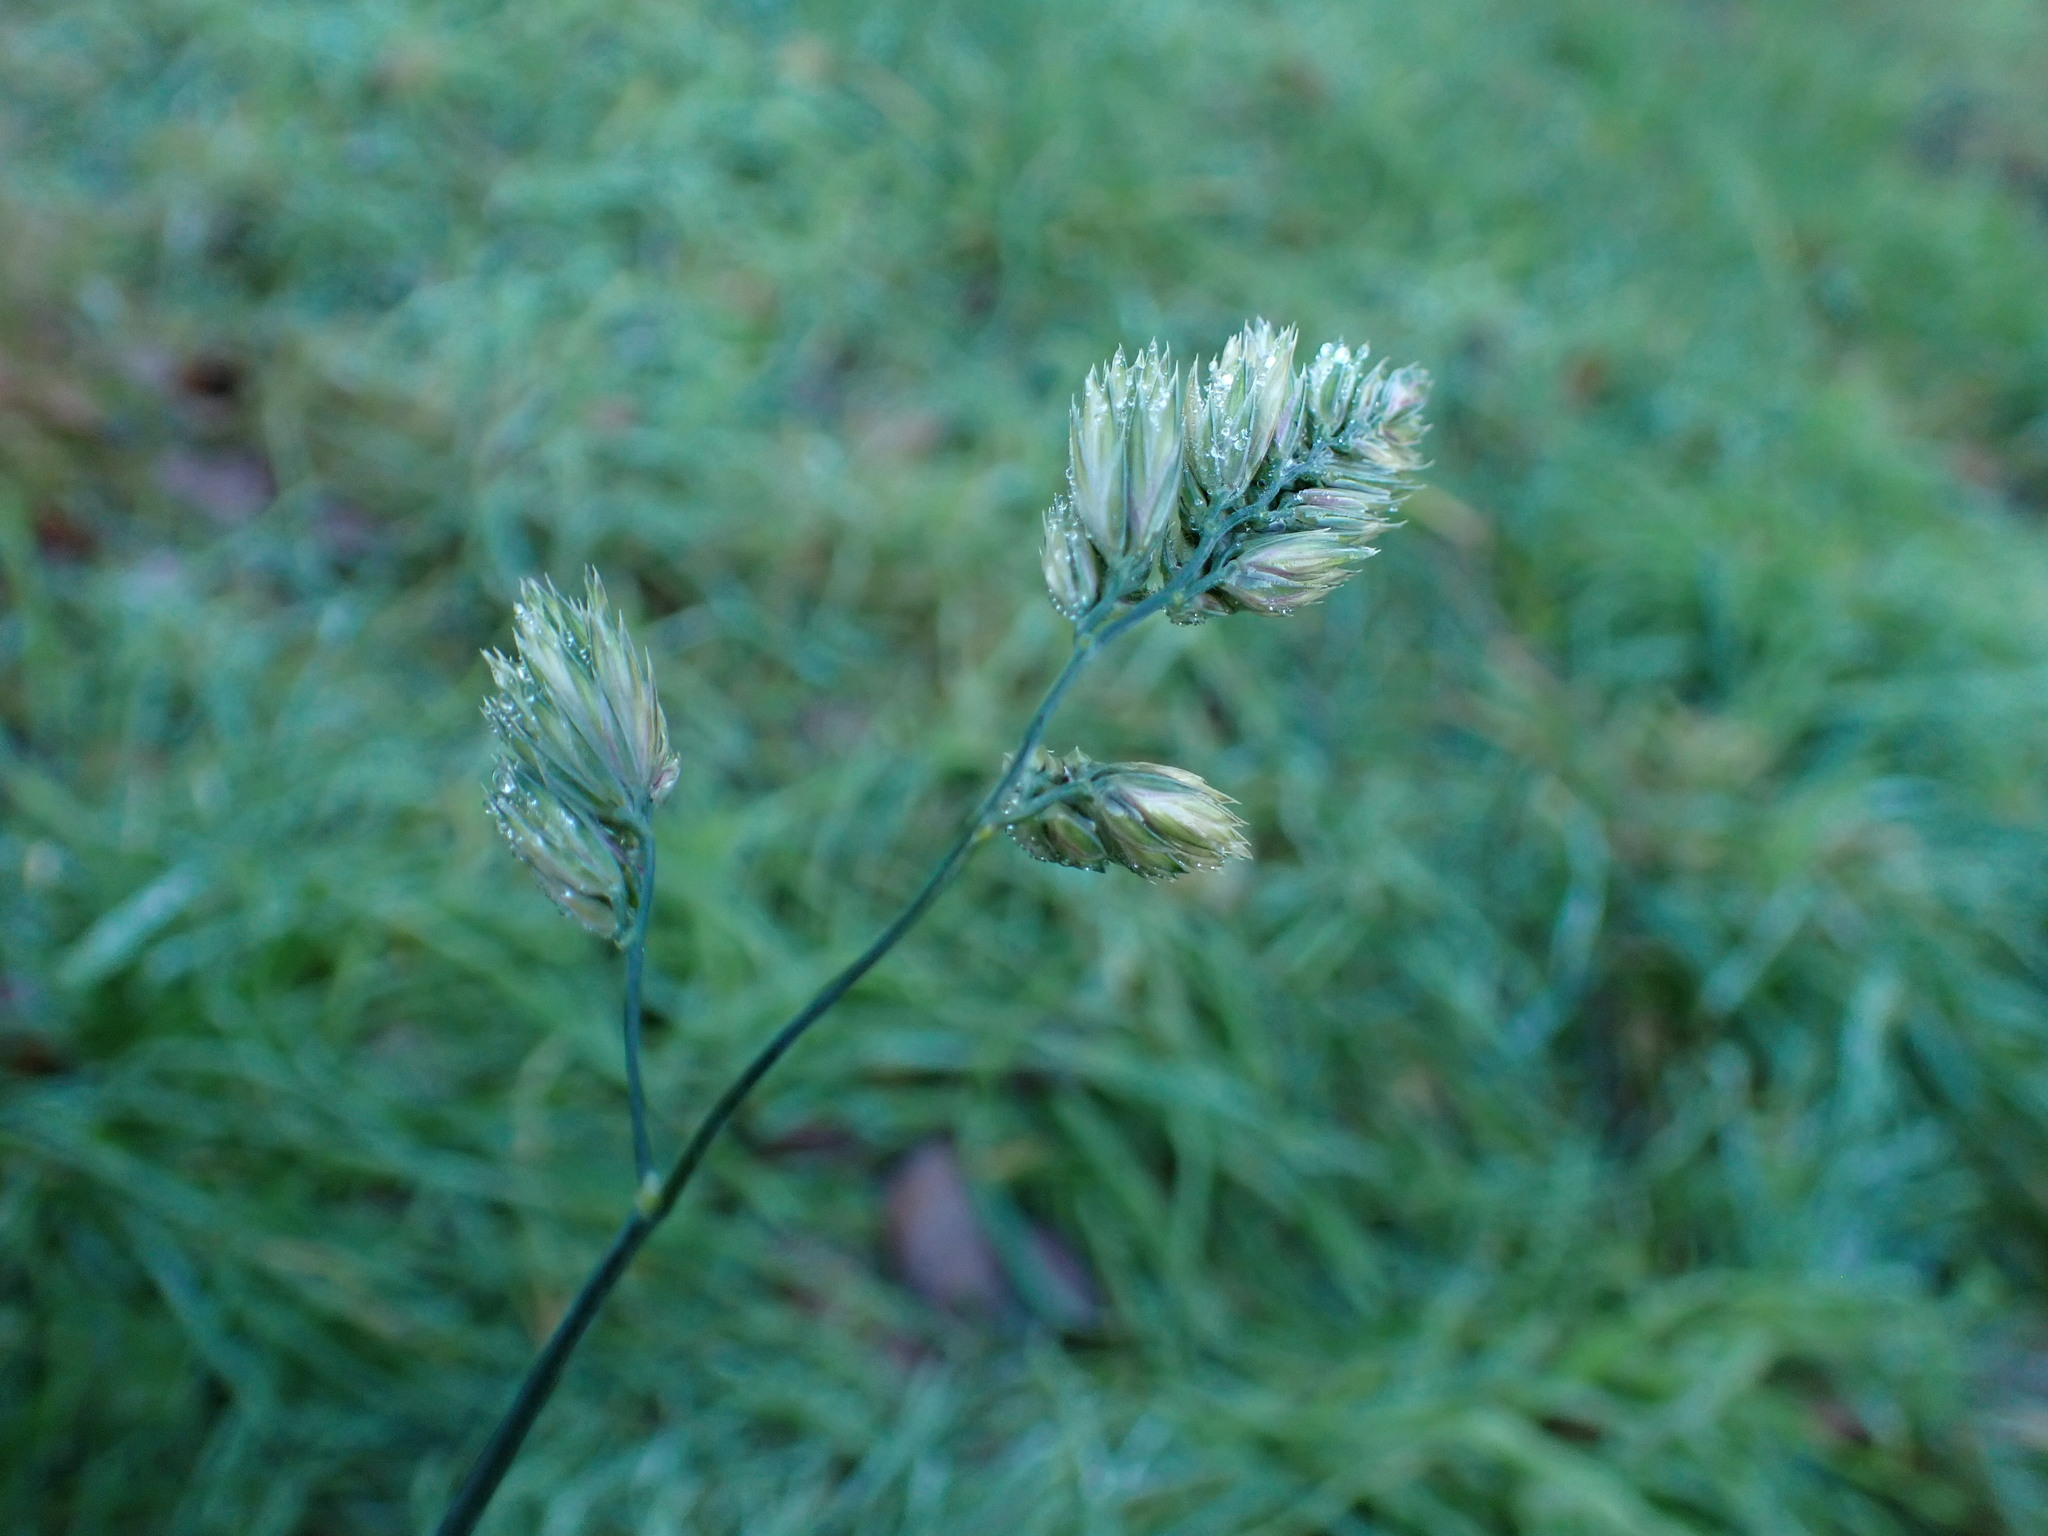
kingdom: Plantae
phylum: Tracheophyta
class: Liliopsida
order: Poales
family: Poaceae
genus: Dactylis
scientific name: Dactylis glomerata
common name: Orchardgrass
